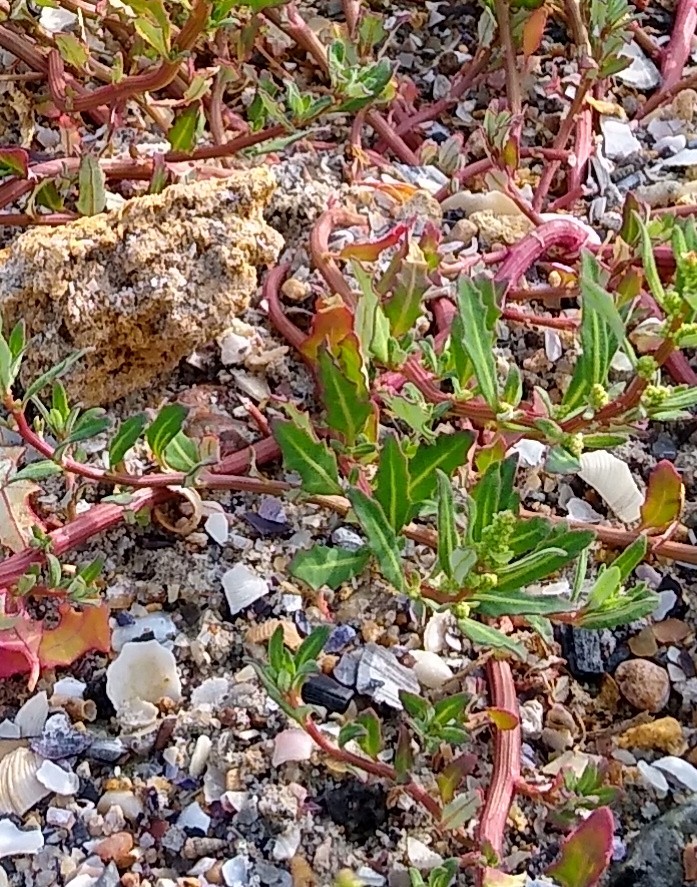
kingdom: Plantae
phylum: Tracheophyta
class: Magnoliopsida
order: Caryophyllales
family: Amaranthaceae
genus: Oxybasis
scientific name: Oxybasis glauca
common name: Glaucous goosefoot
